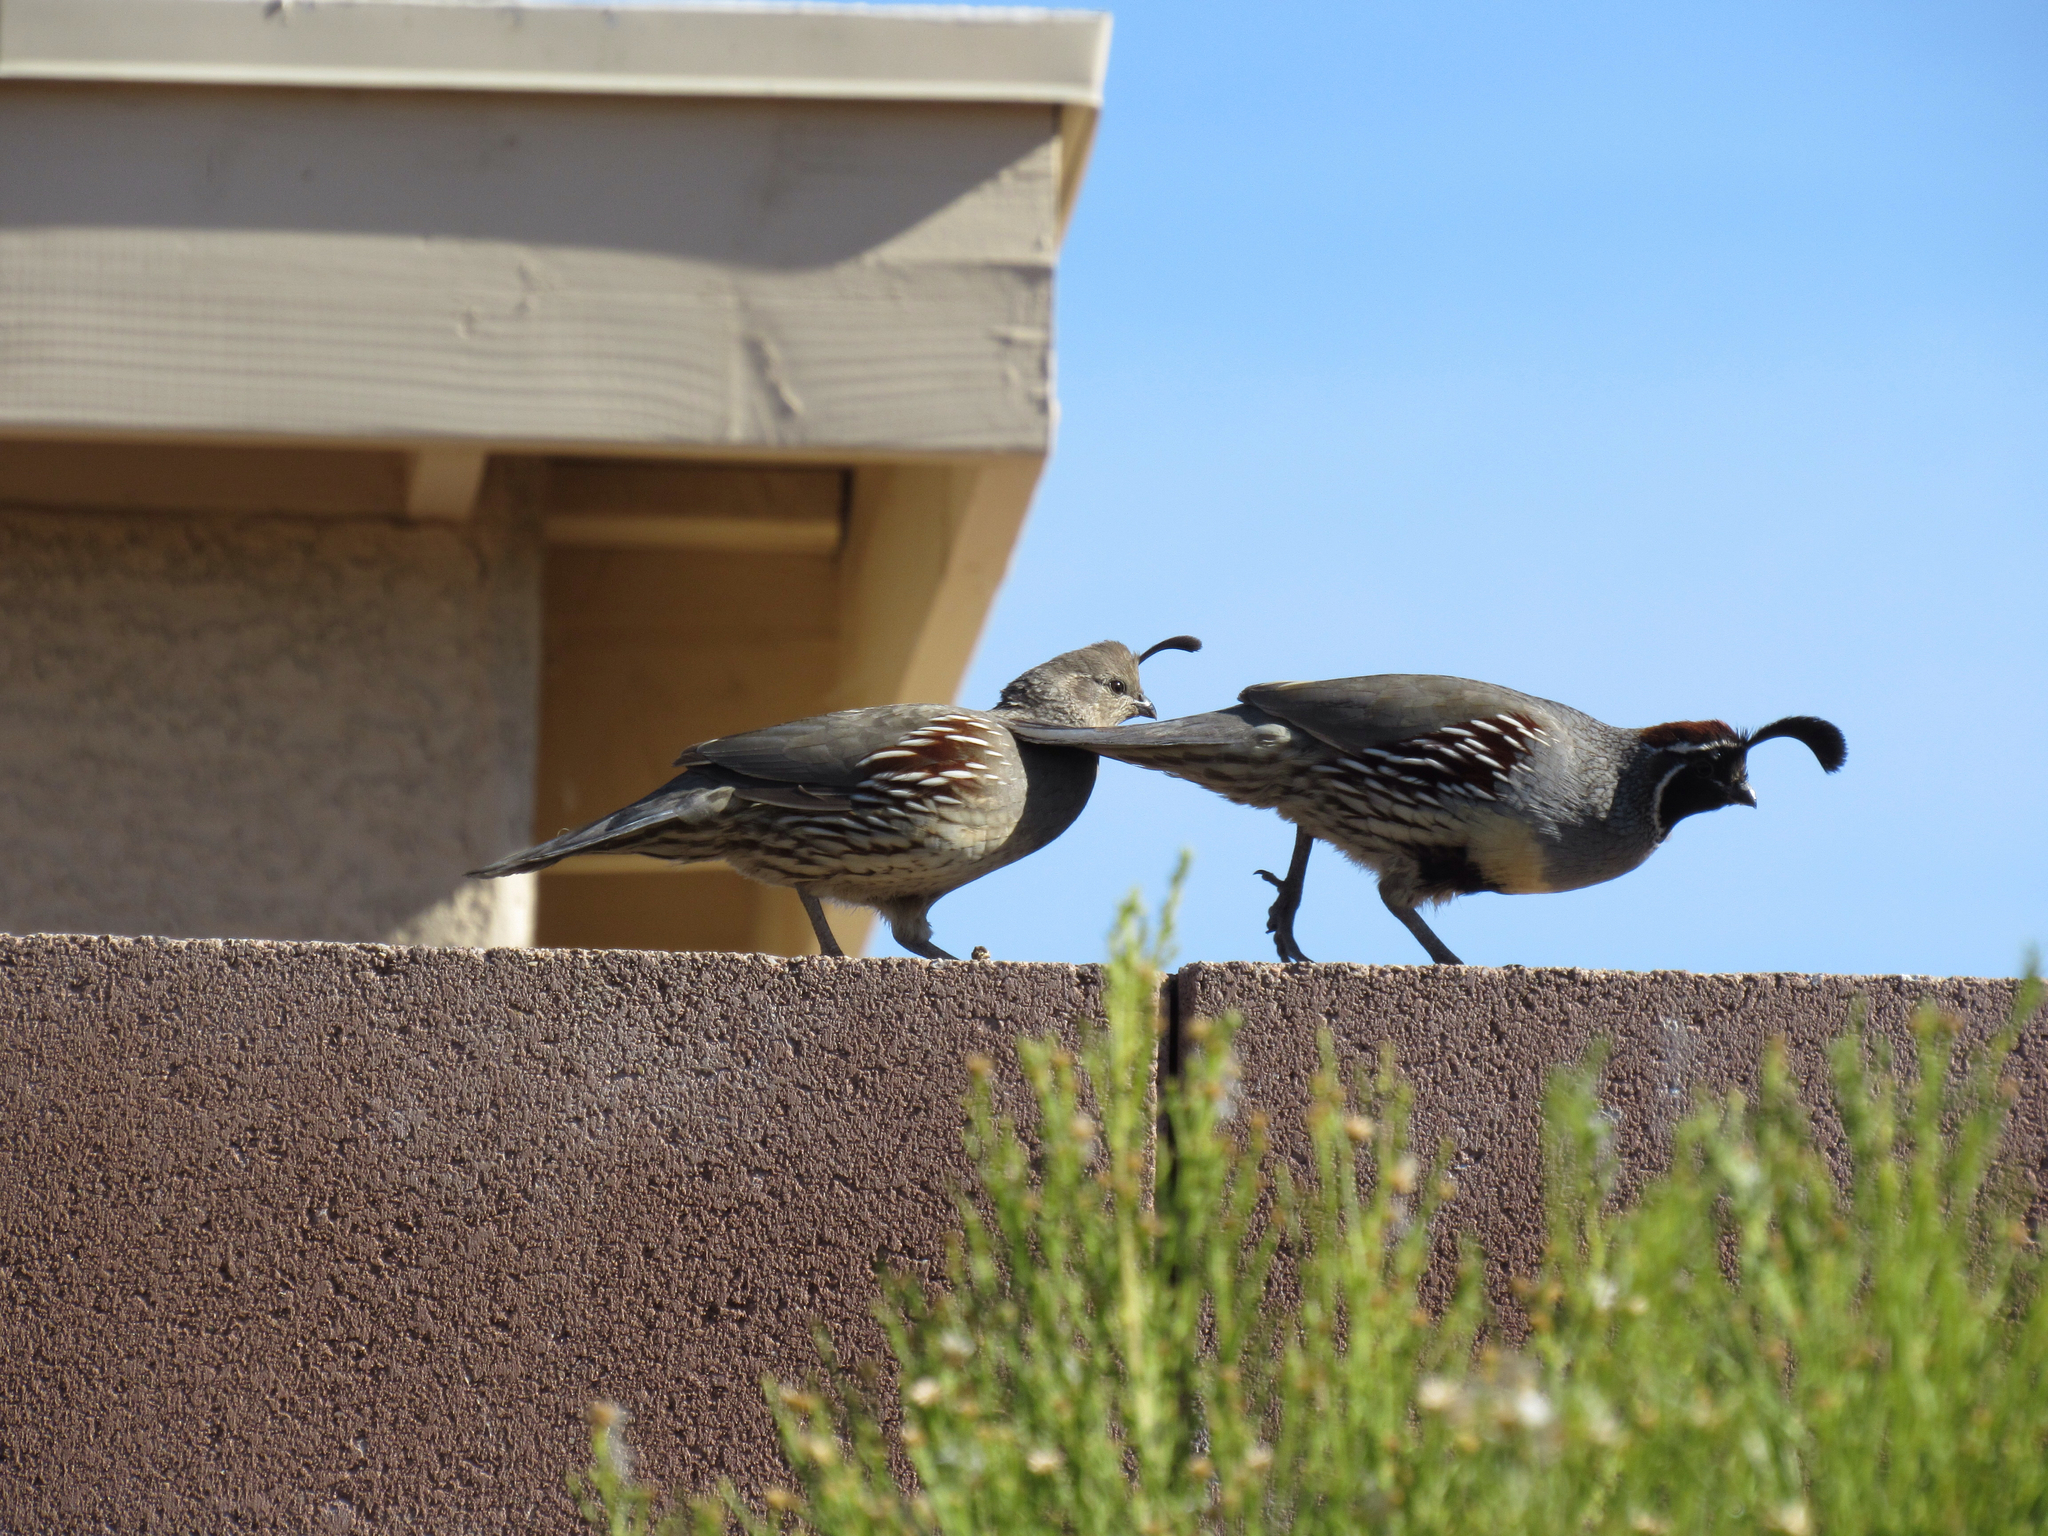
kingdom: Animalia
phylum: Chordata
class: Aves
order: Galliformes
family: Odontophoridae
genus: Callipepla
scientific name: Callipepla gambelii
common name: Gambel's quail
